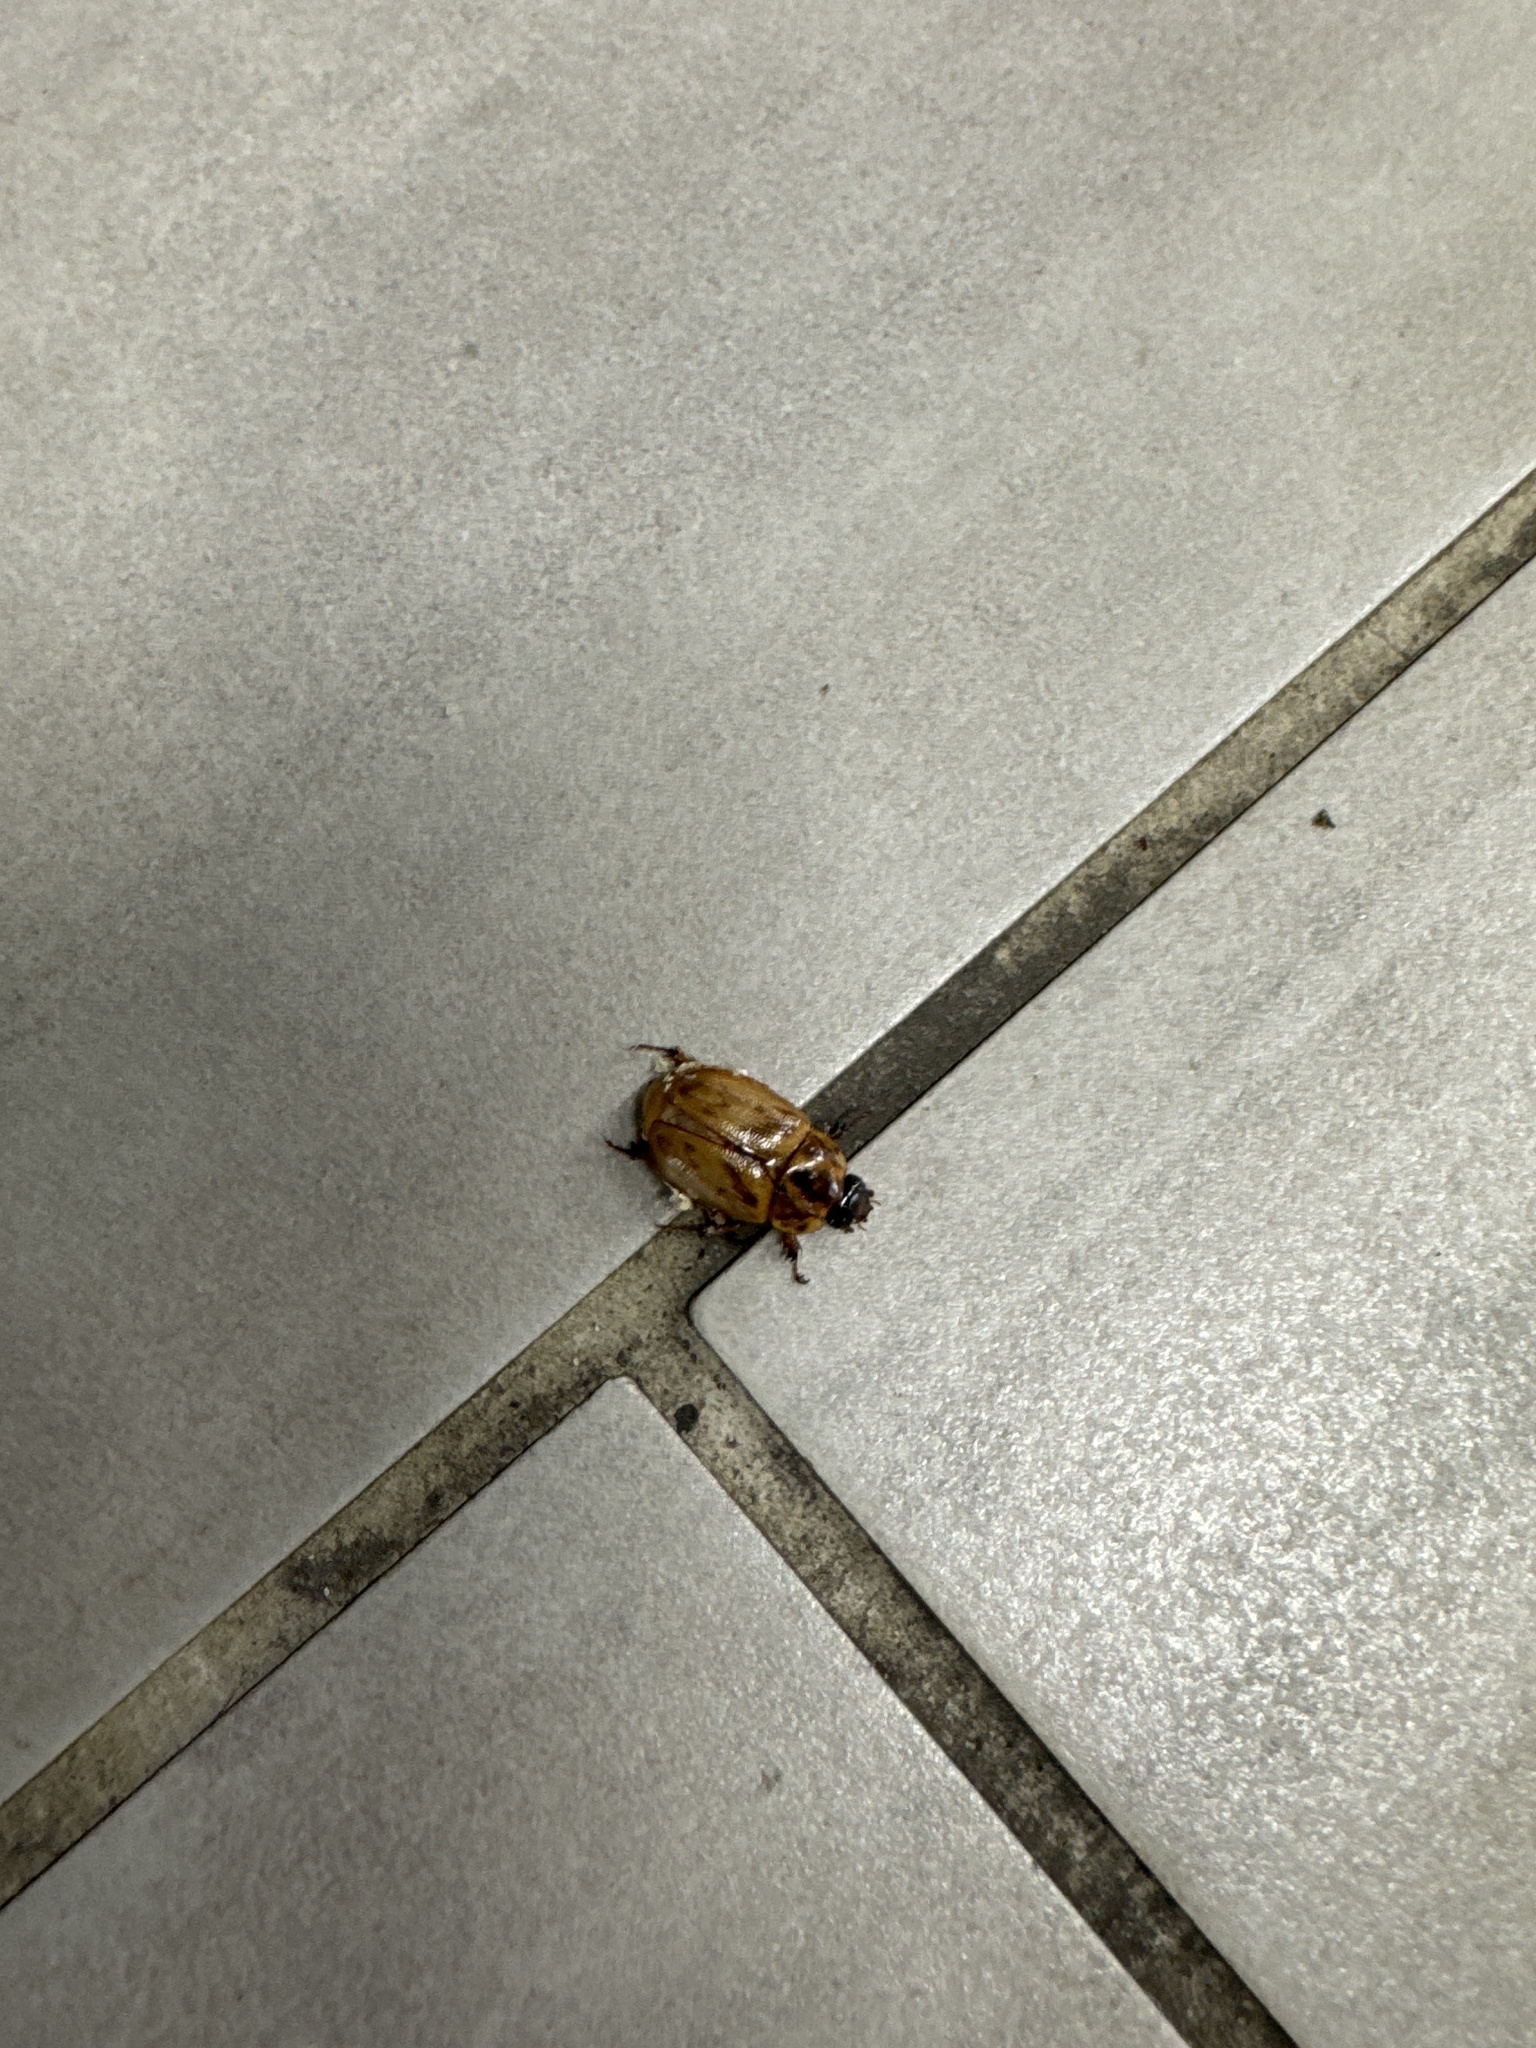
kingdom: Animalia
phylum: Arthropoda
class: Insecta
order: Coleoptera
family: Scarabaeidae
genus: Cyclocephala
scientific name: Cyclocephala signaticollis
